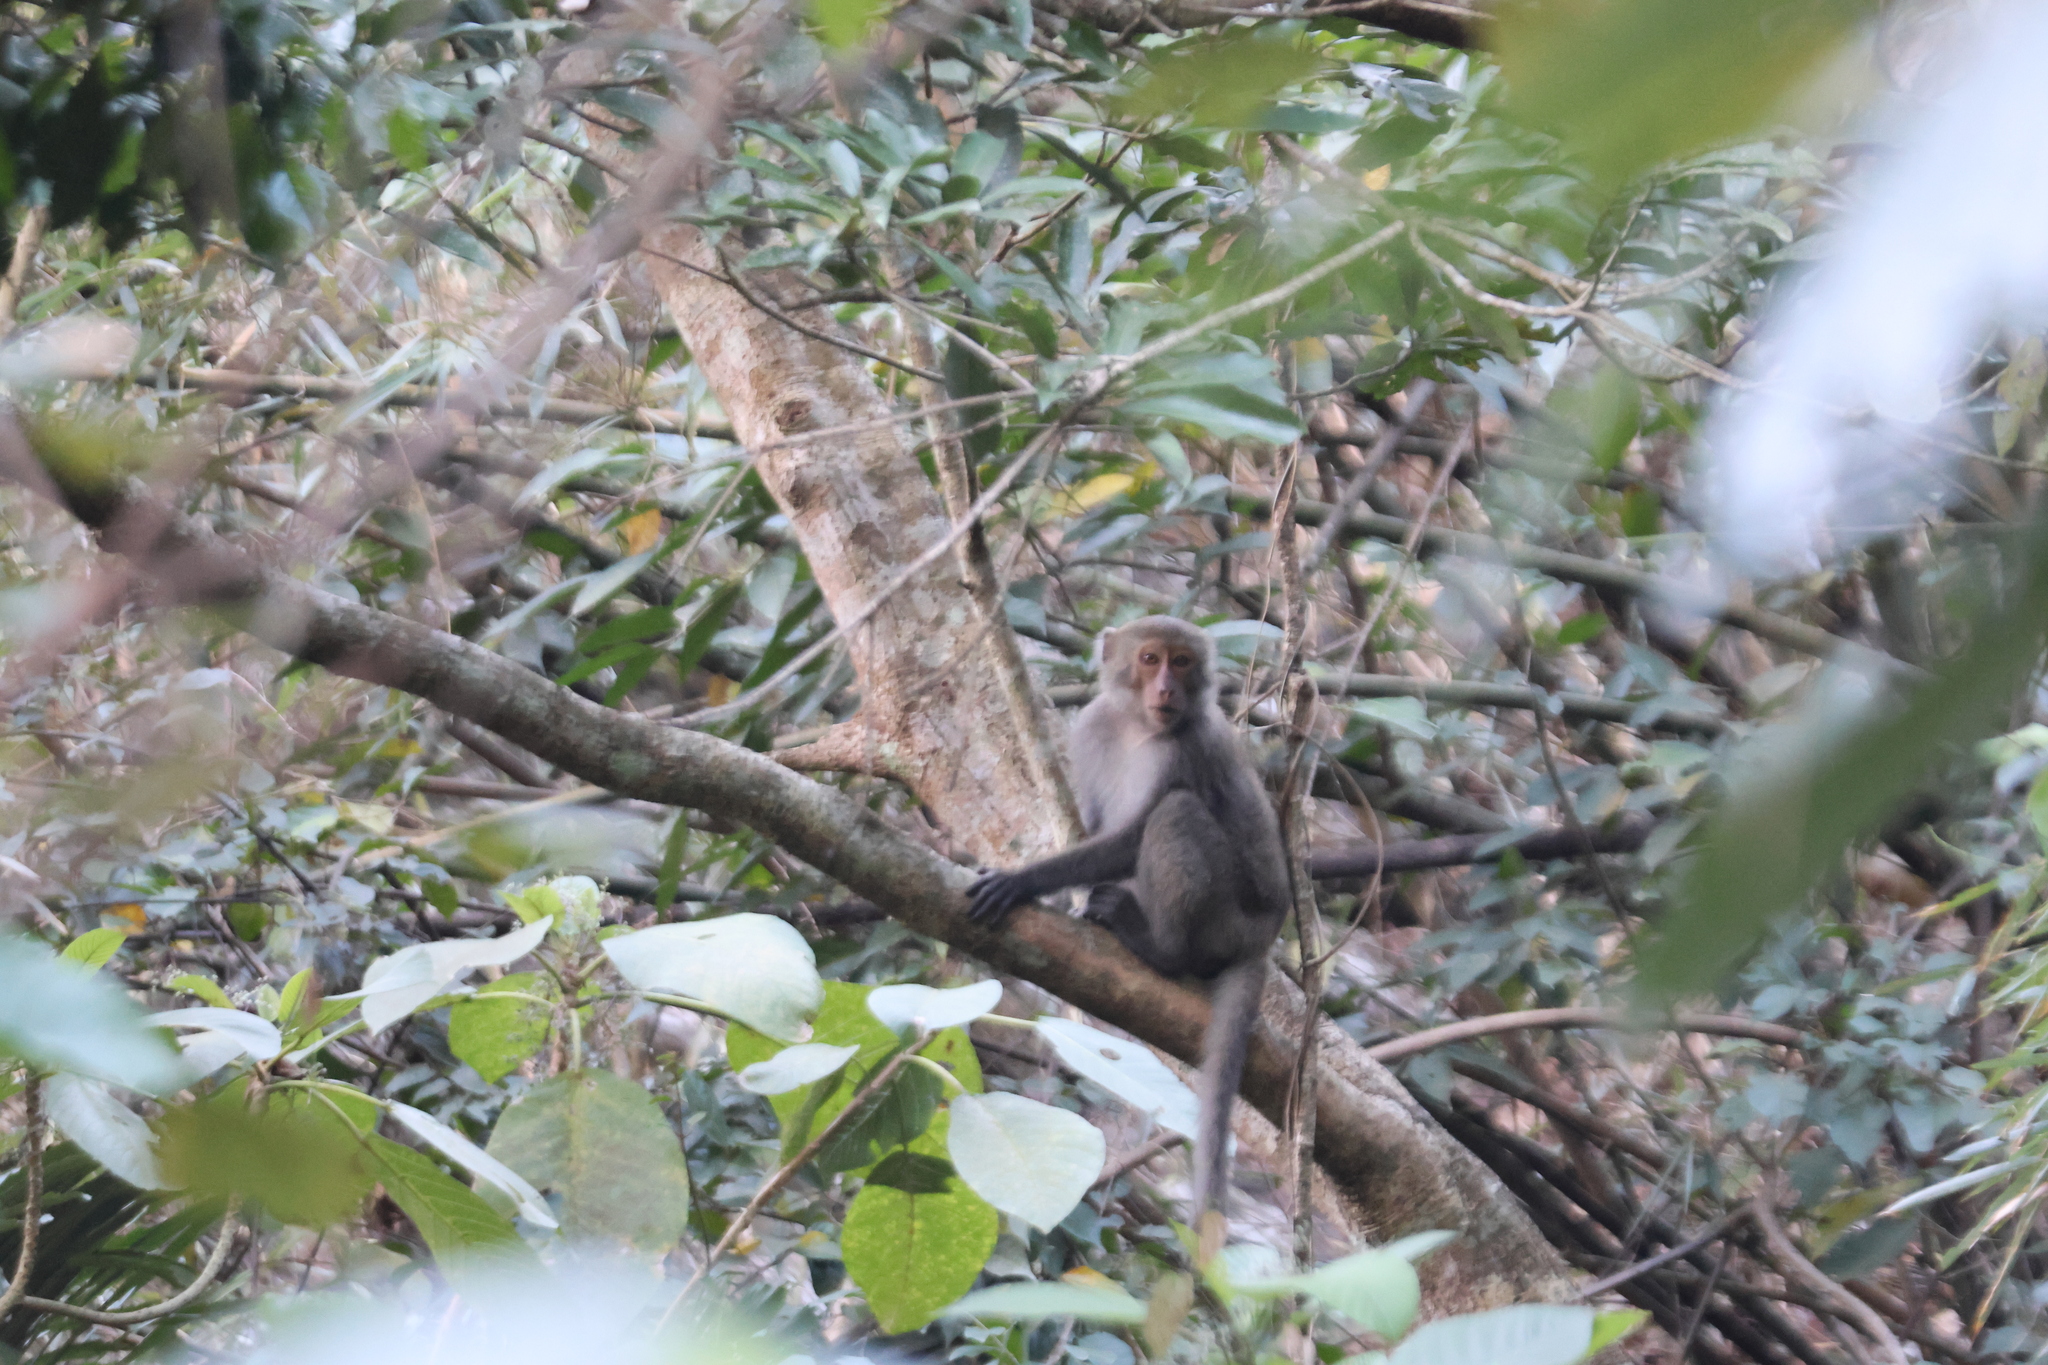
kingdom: Animalia
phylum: Chordata
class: Mammalia
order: Primates
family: Cercopithecidae
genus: Macaca
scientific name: Macaca cyclopis
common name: Formosan rock macaque
